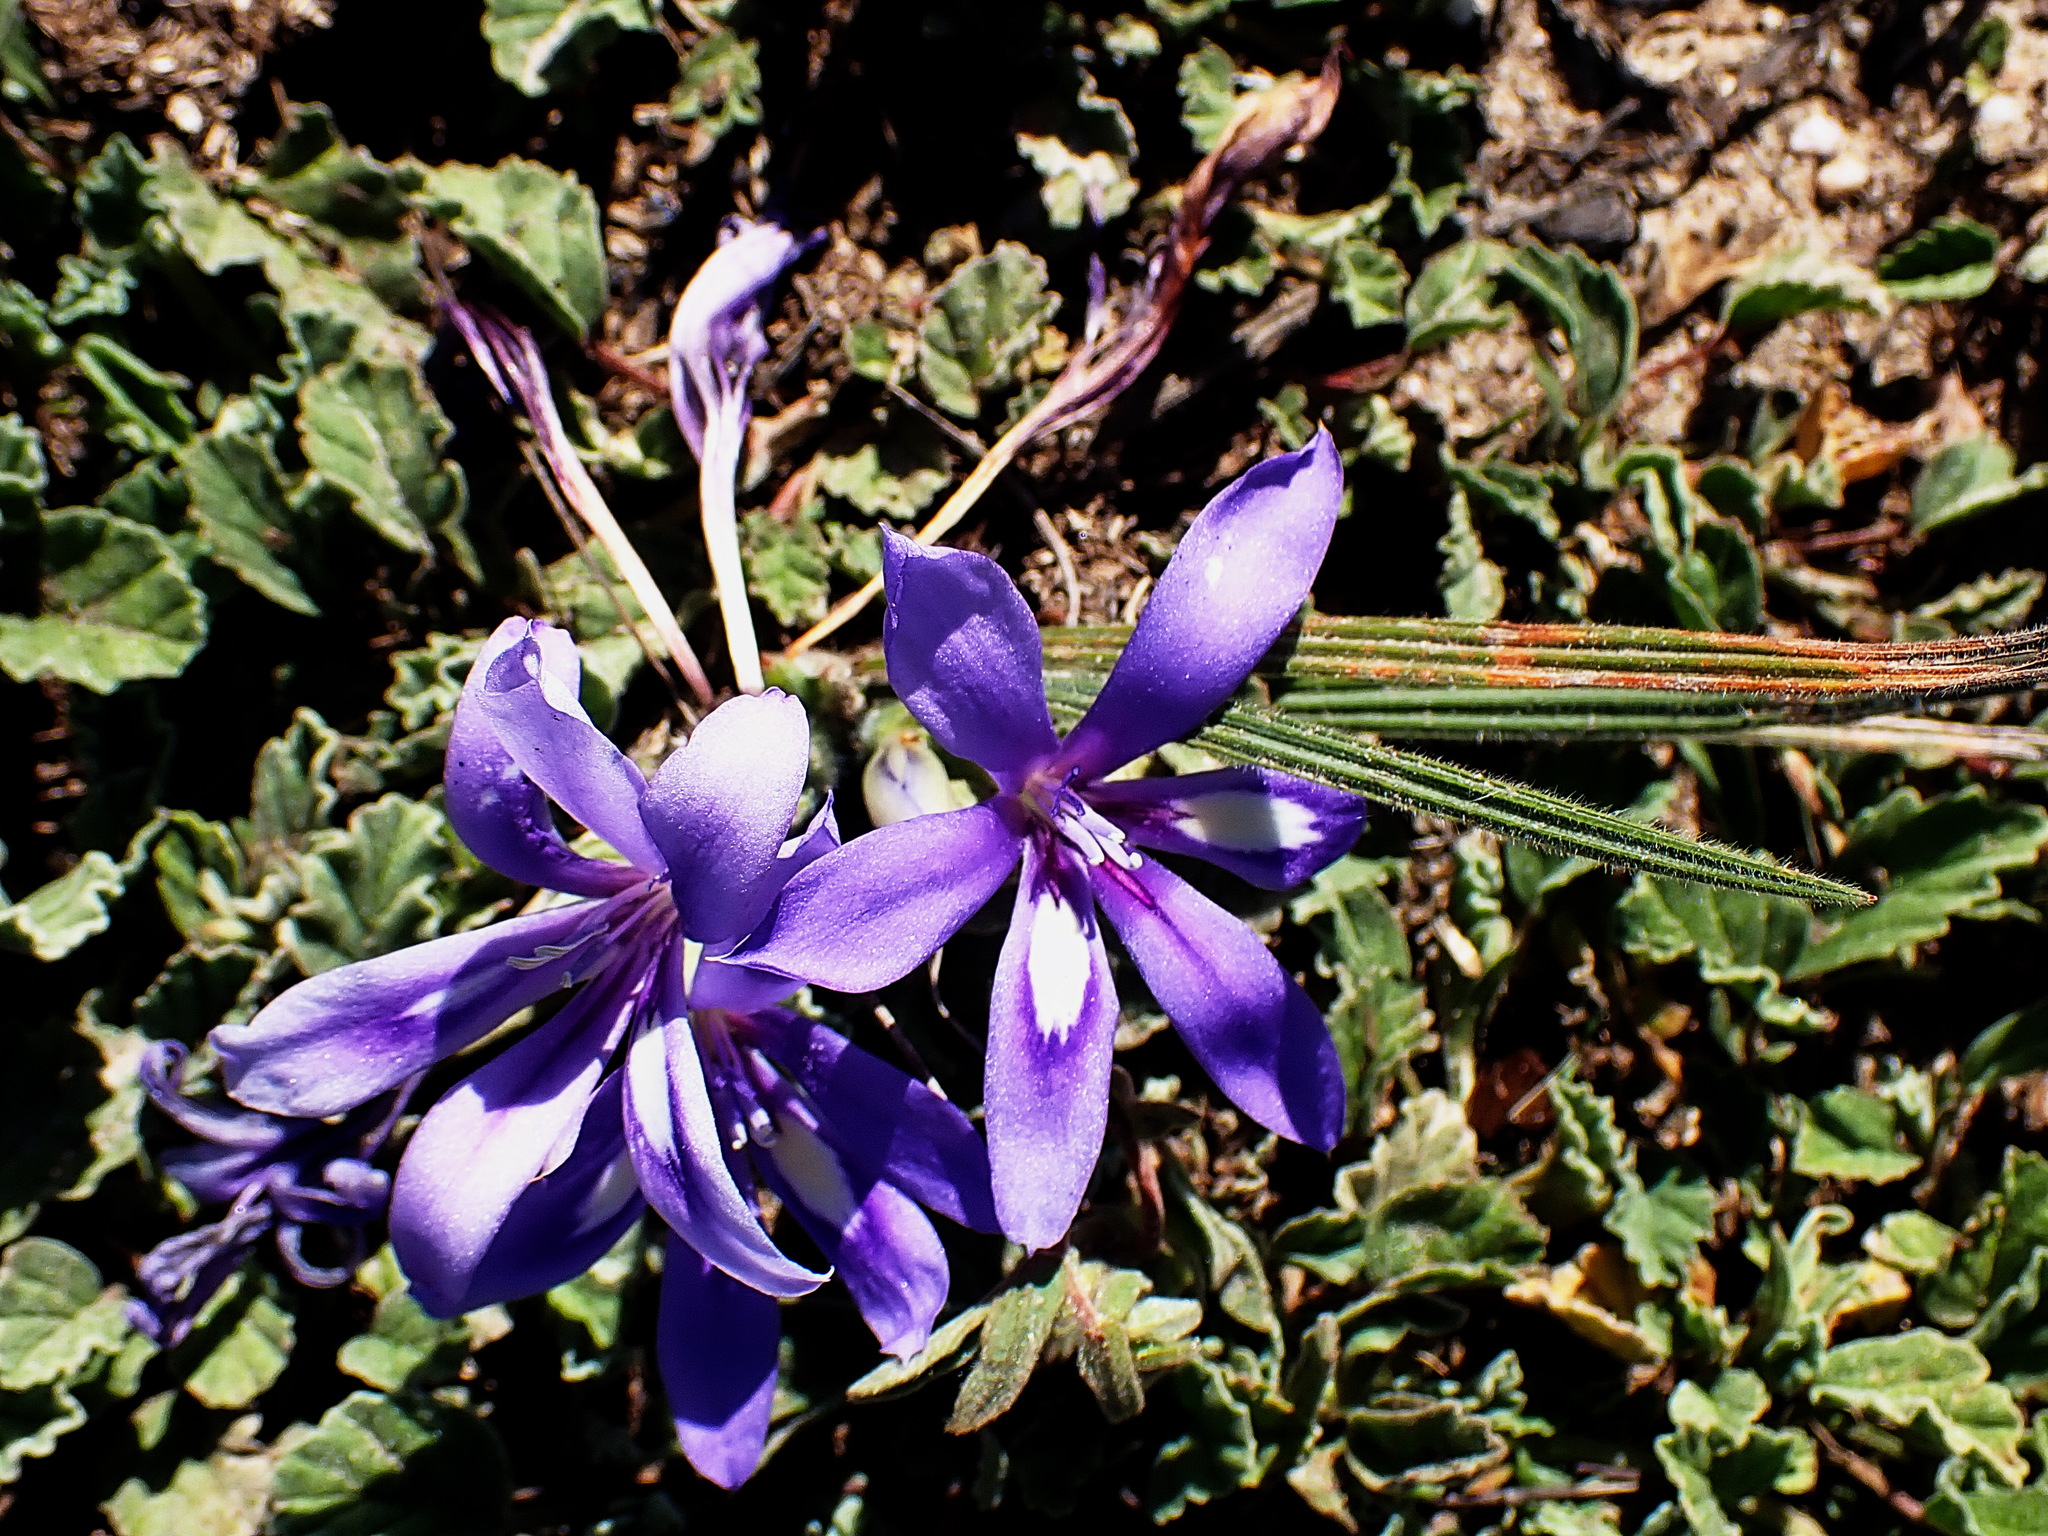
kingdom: Plantae
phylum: Tracheophyta
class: Liliopsida
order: Asparagales
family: Iridaceae
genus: Babiana
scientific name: Babiana sambucina
